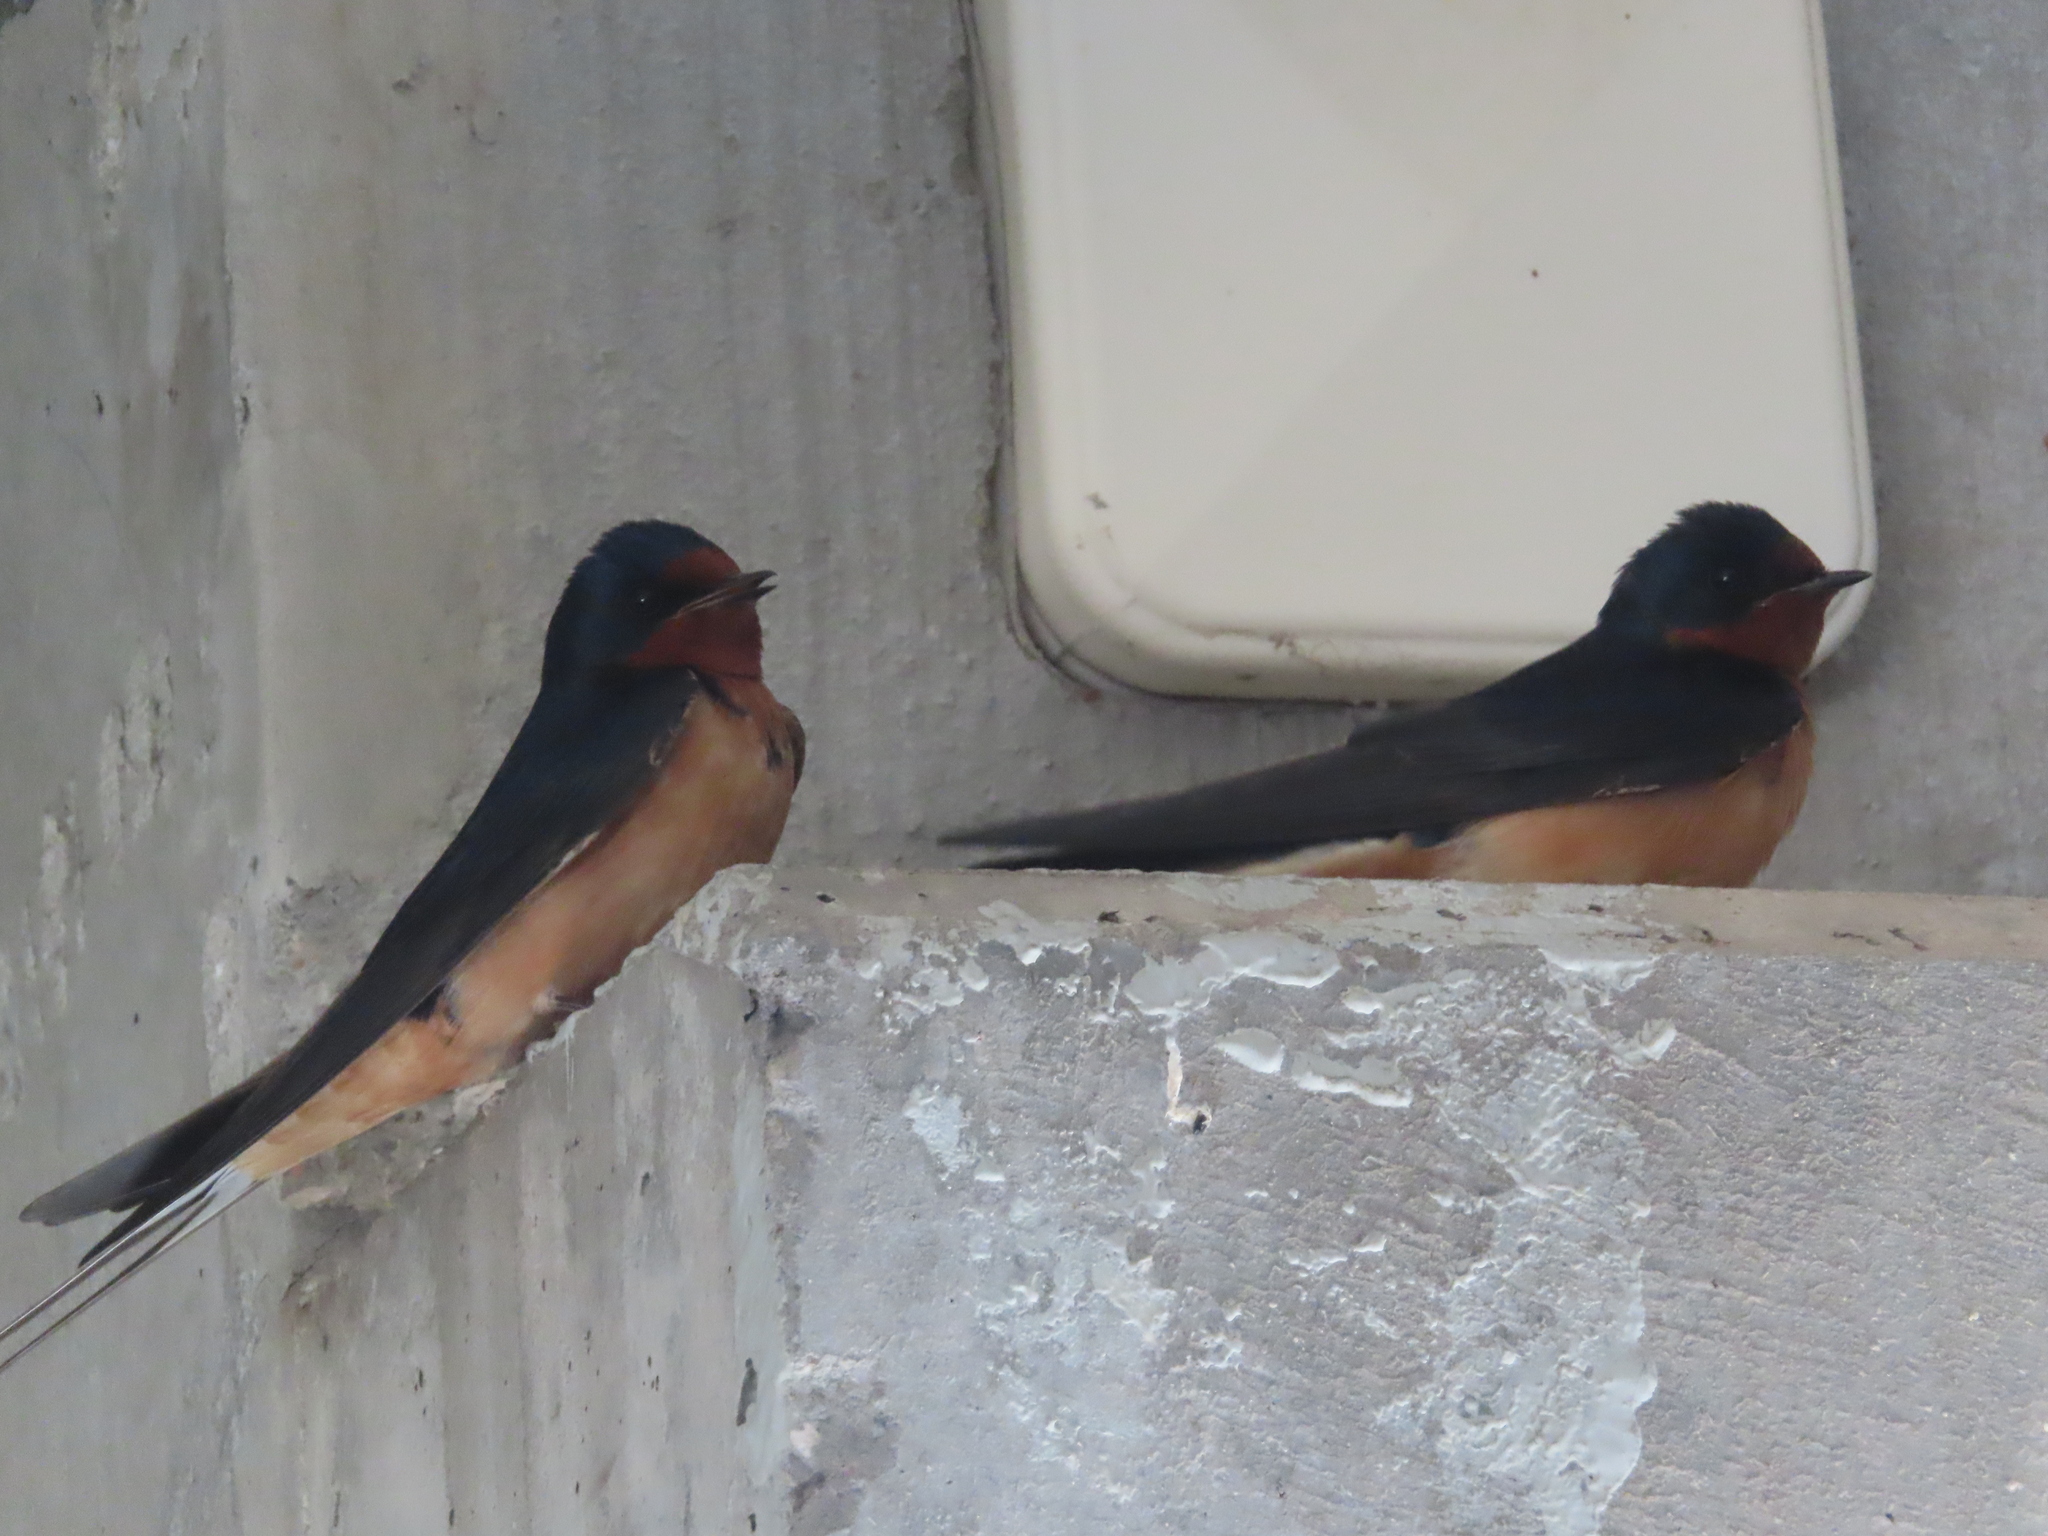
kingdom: Animalia
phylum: Chordata
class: Aves
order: Passeriformes
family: Hirundinidae
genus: Hirundo
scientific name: Hirundo rustica
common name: Barn swallow
